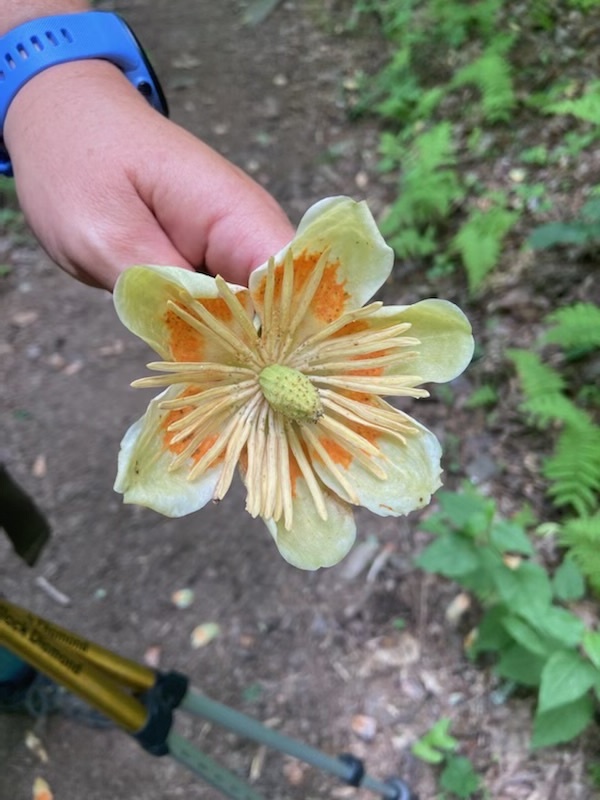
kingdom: Plantae
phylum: Tracheophyta
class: Magnoliopsida
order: Magnoliales
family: Magnoliaceae
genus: Liriodendron
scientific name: Liriodendron tulipifera
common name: Tulip tree
